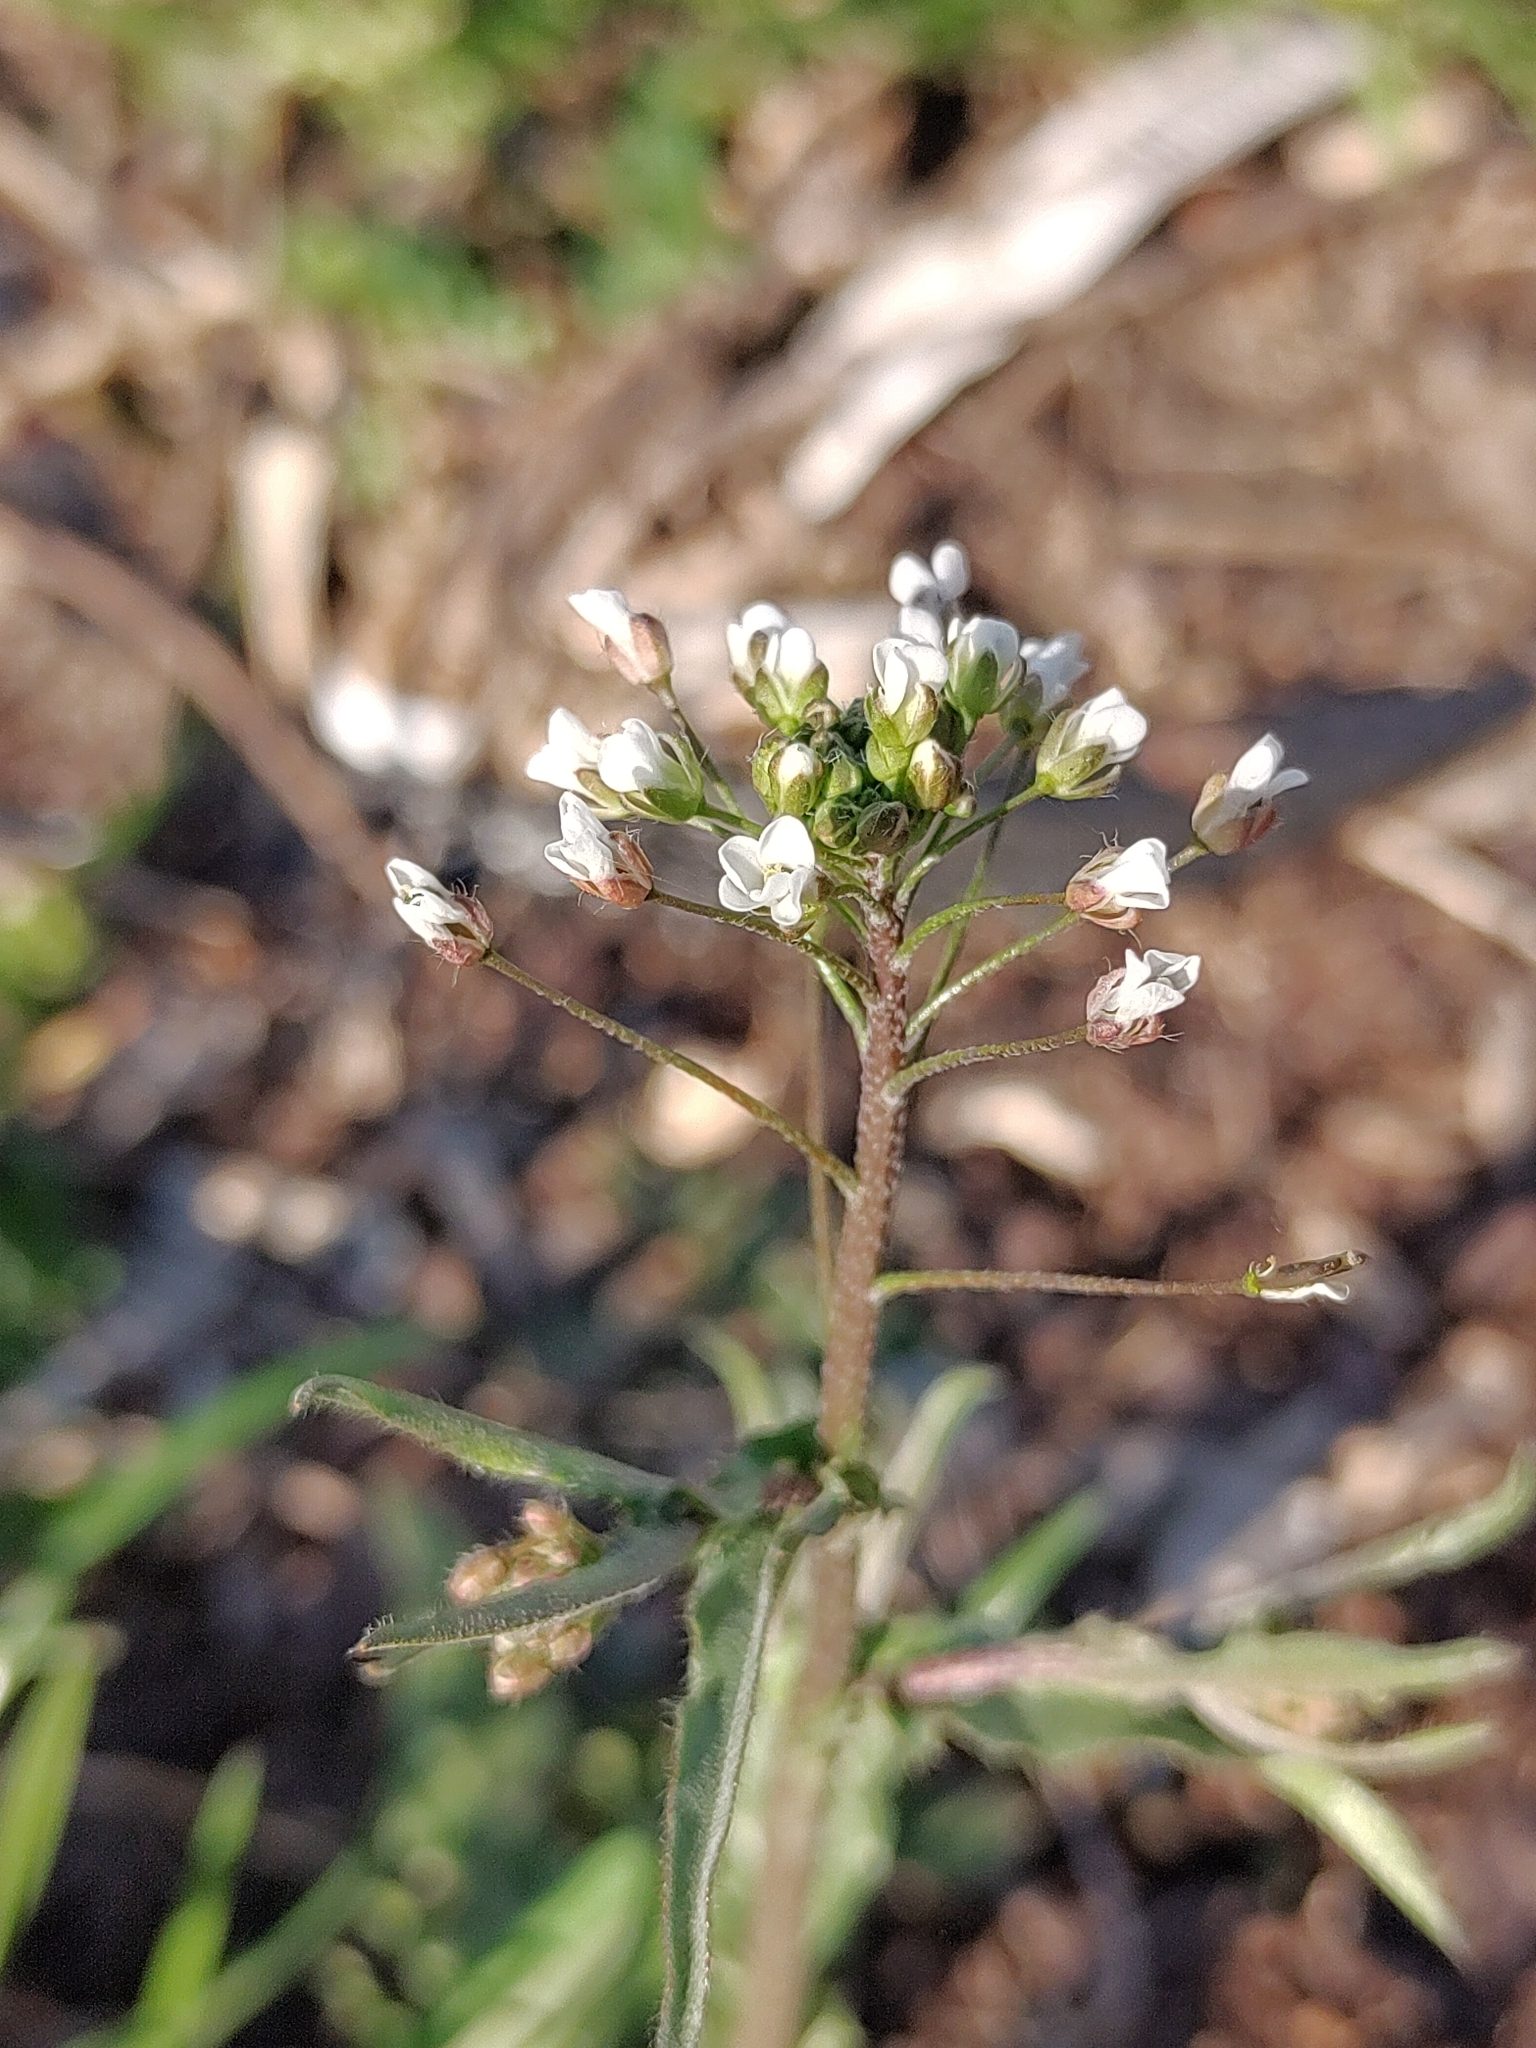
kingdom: Plantae
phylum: Tracheophyta
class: Magnoliopsida
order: Brassicales
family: Brassicaceae
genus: Capsella
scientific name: Capsella bursa-pastoris
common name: Shepherd's purse
